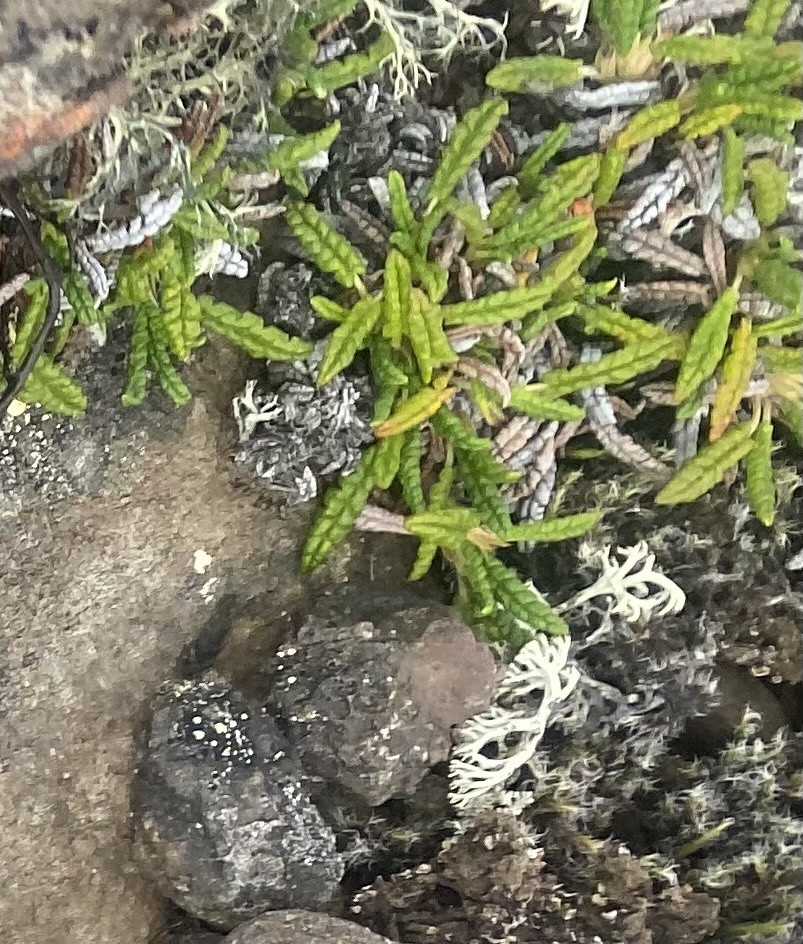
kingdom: Plantae
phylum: Tracheophyta
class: Magnoliopsida
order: Rosales
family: Rosaceae
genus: Dryas
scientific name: Dryas octopetala
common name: Eight-petal mountain-avens
